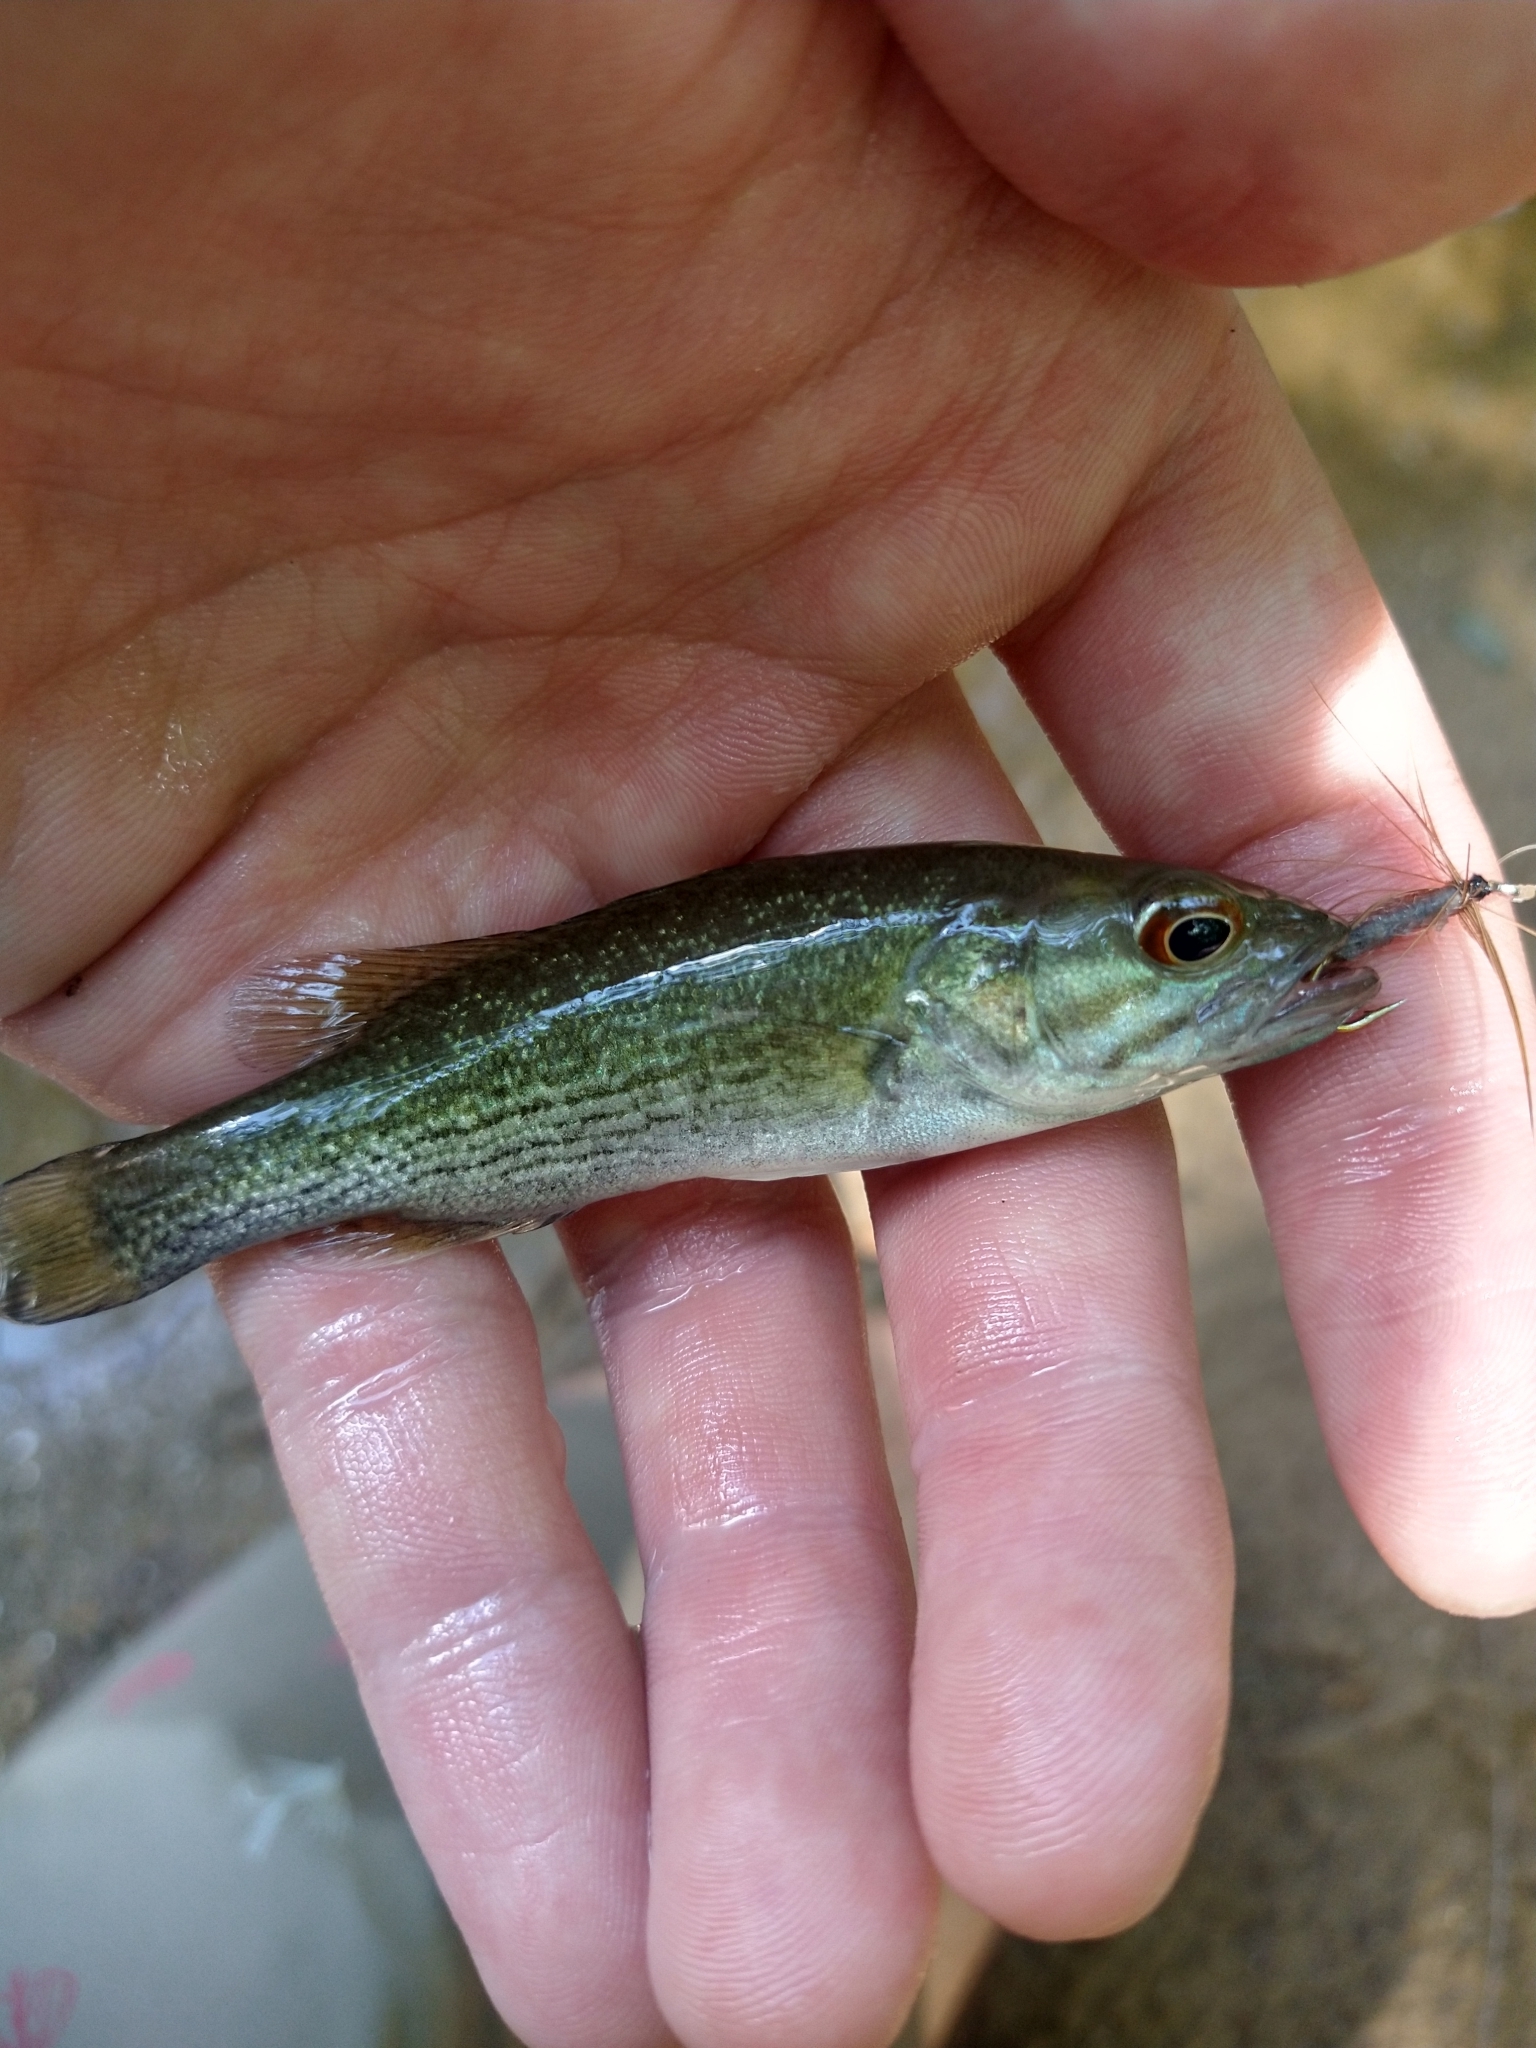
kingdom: Animalia
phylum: Chordata
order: Perciformes
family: Centrarchidae
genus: Micropterus
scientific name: Micropterus tallapoosae
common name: Tallapoosa bass
